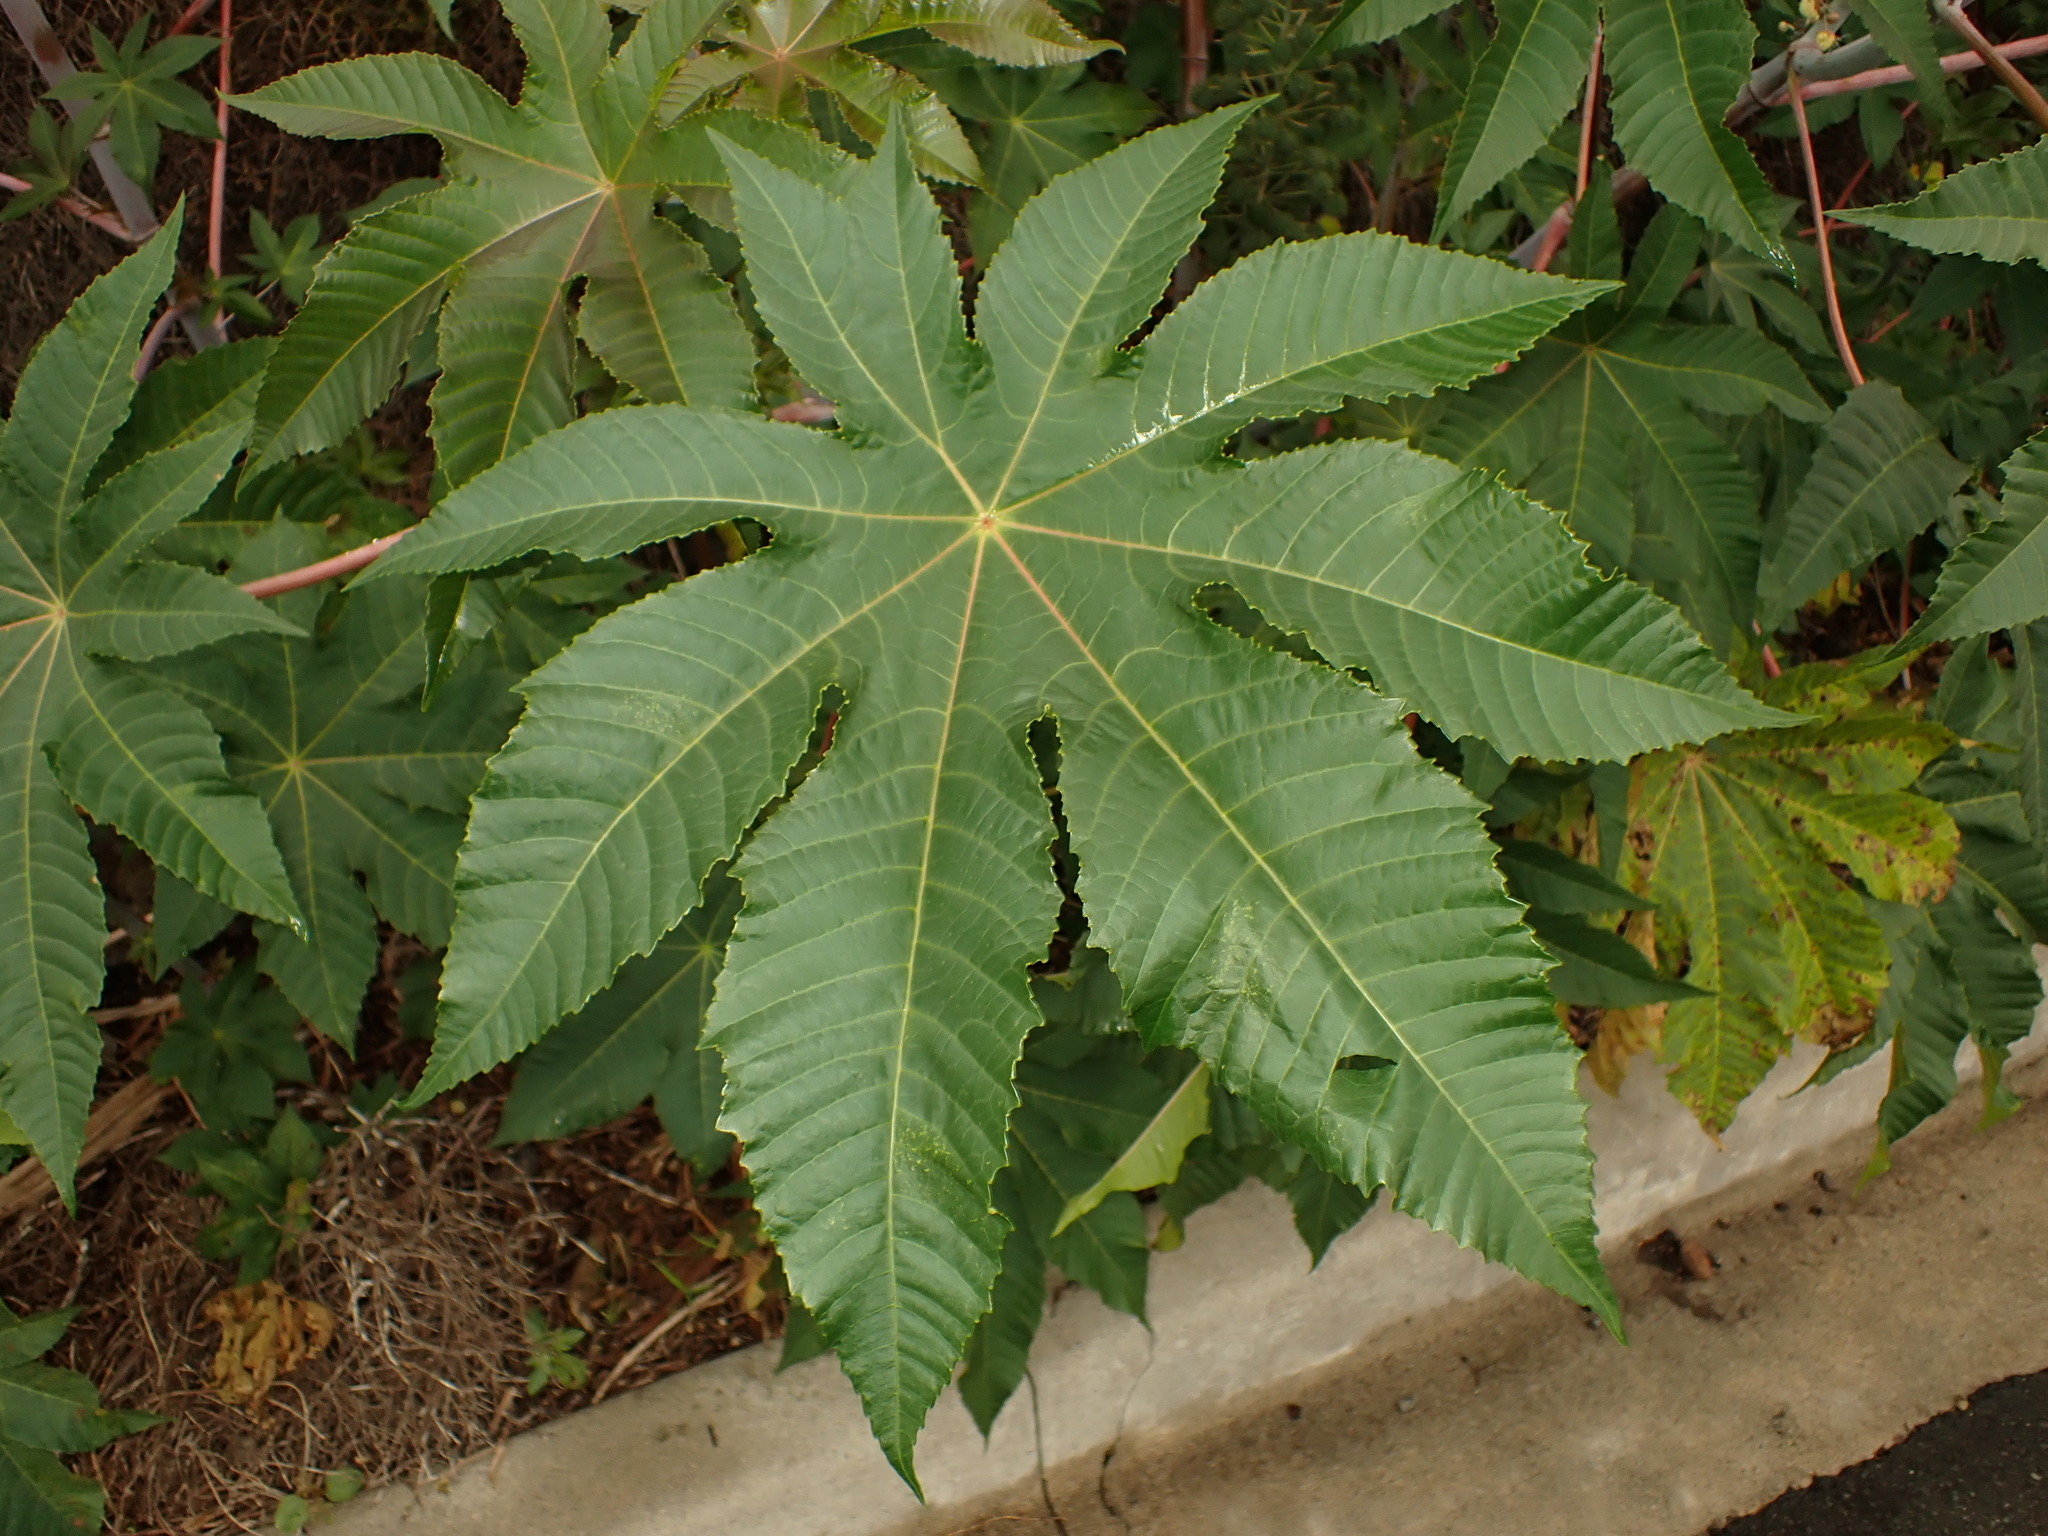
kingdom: Fungi
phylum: Basidiomycota
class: Pucciniomycetes
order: Pucciniales
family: Melampsoraceae
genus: Melampsora
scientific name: Melampsora ricini
